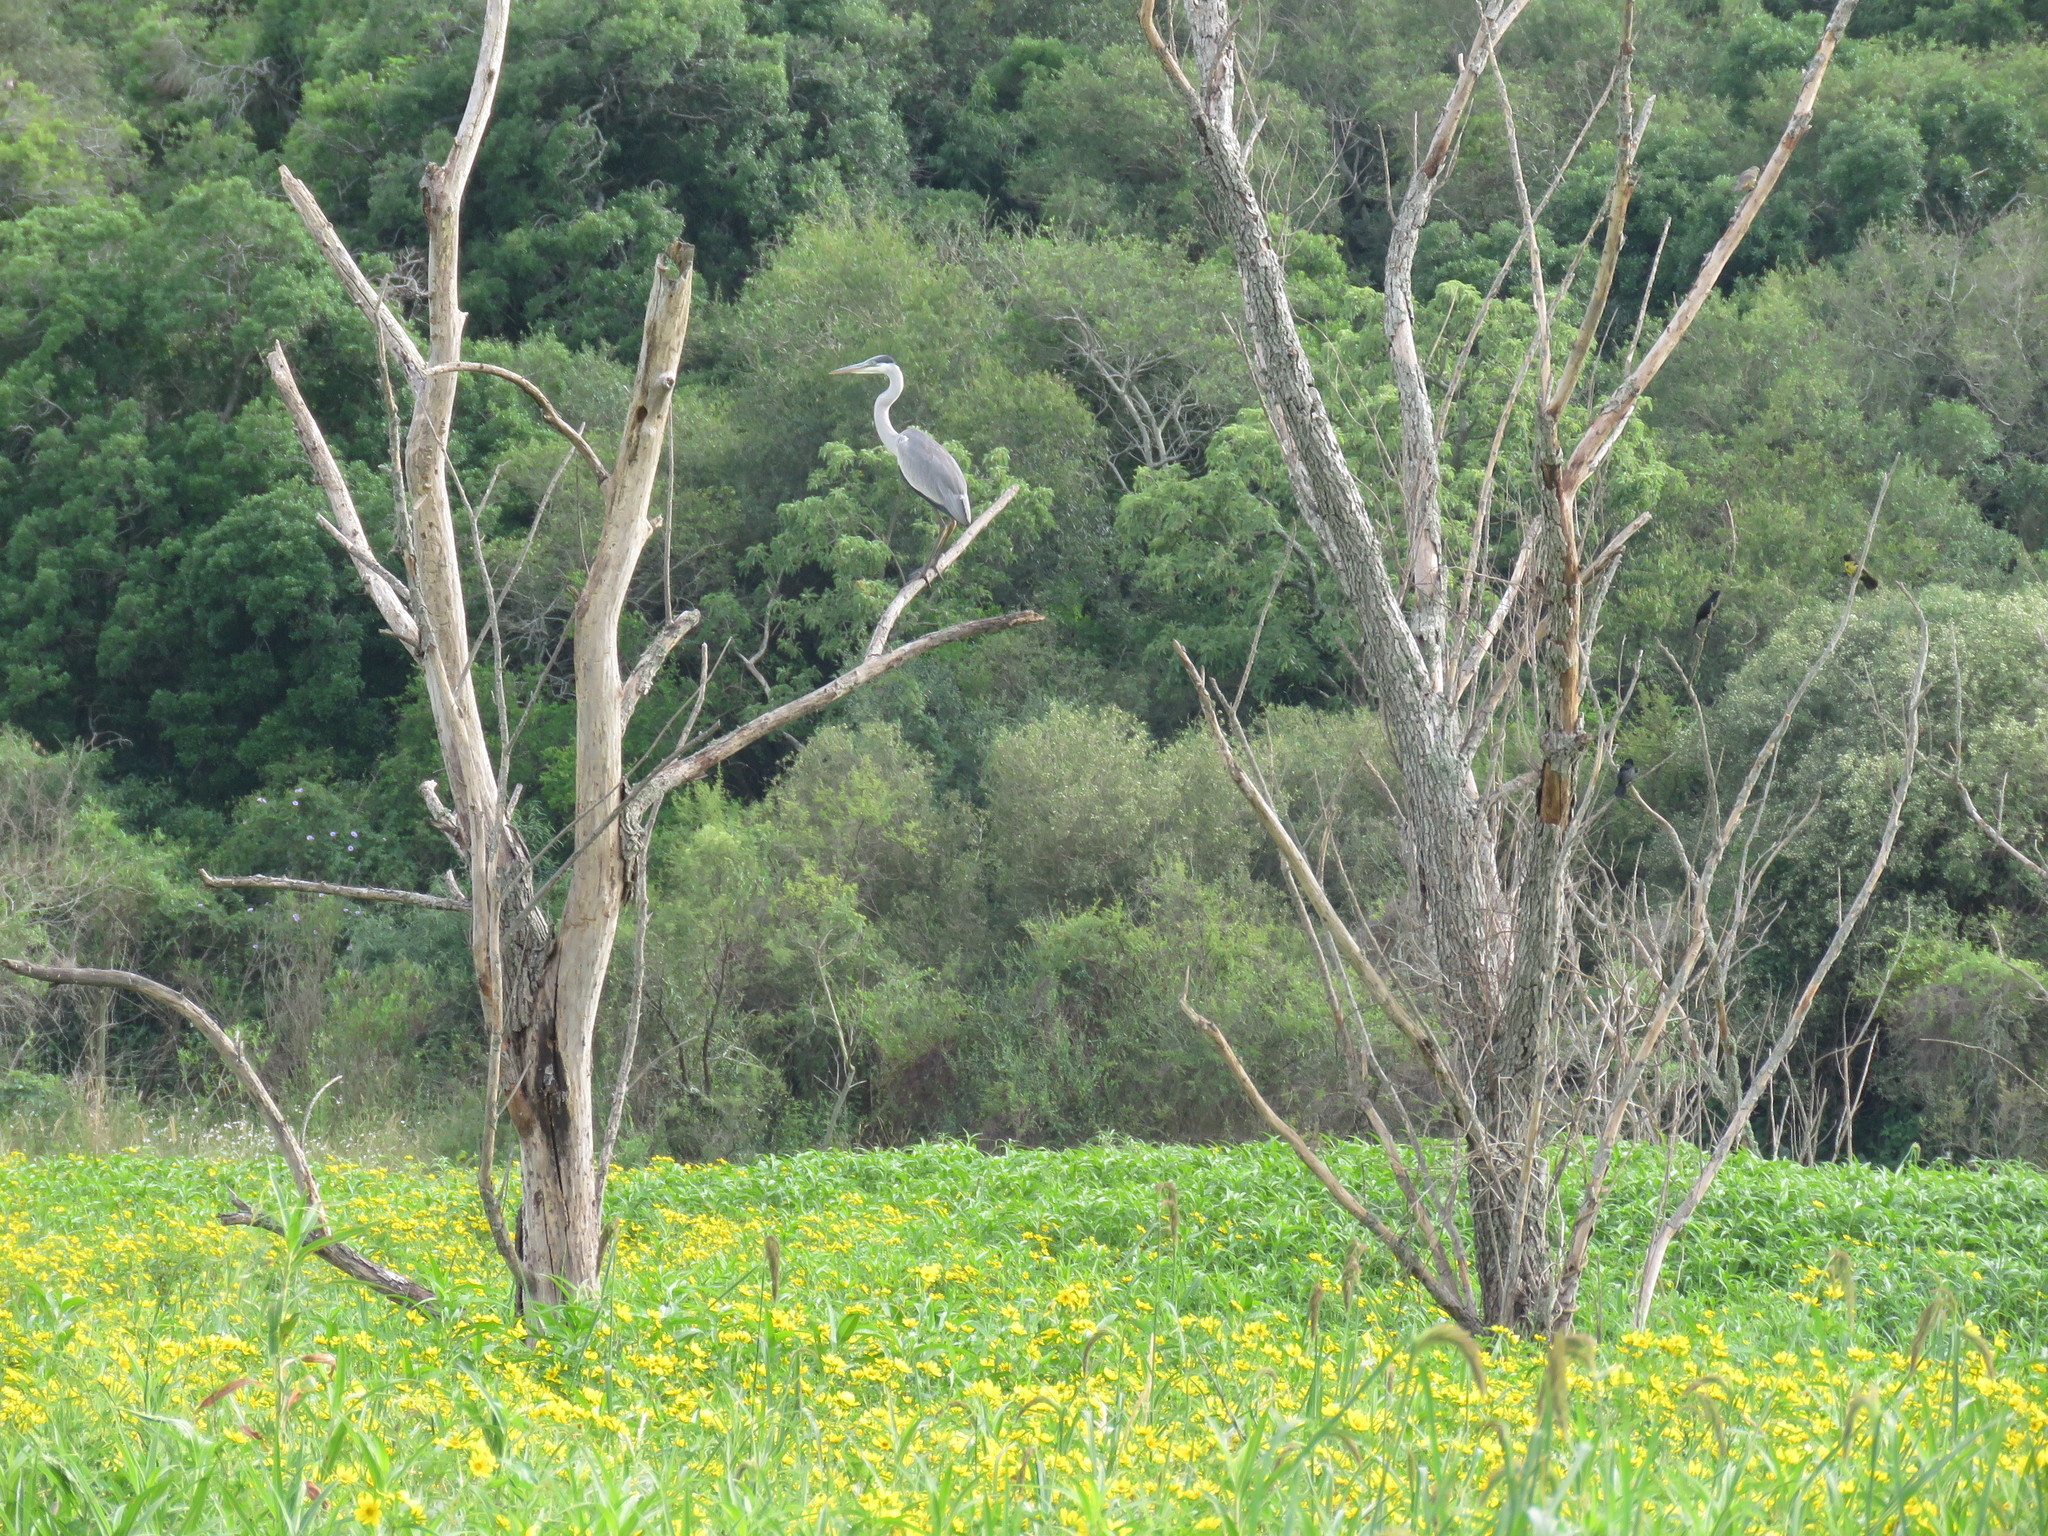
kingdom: Animalia
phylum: Chordata
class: Aves
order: Pelecaniformes
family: Ardeidae
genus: Ardea
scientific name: Ardea cocoi
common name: Cocoi heron
